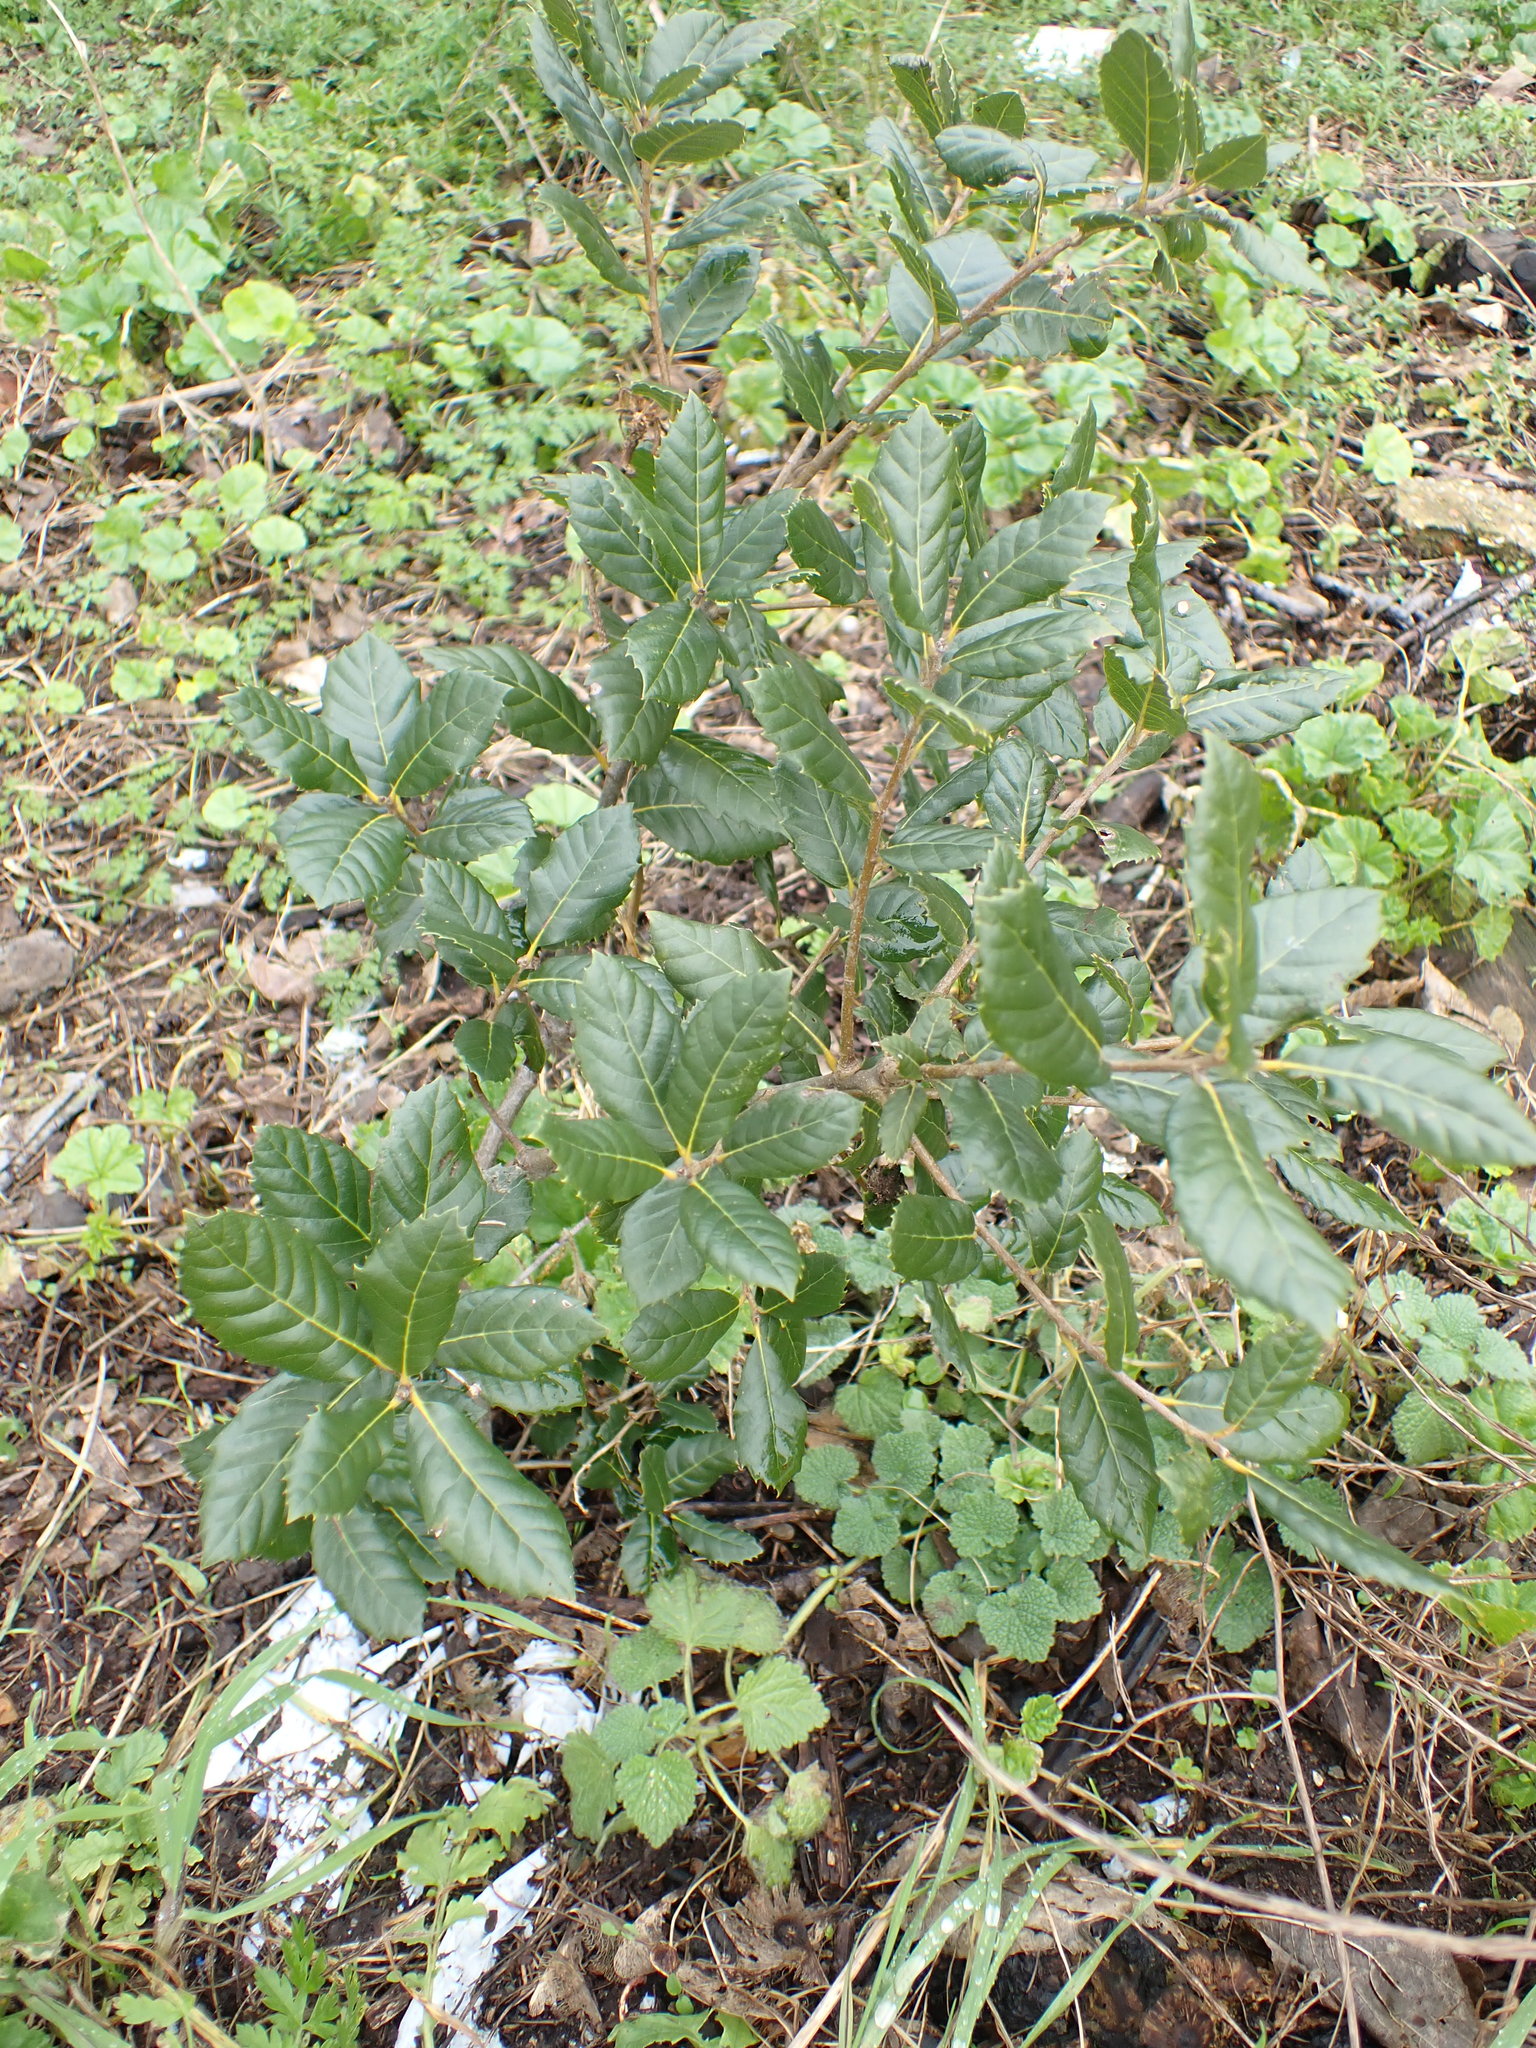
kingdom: Plantae
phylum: Tracheophyta
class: Magnoliopsida
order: Fagales
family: Fagaceae
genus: Quercus
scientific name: Quercus ilex
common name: Evergreen oak
